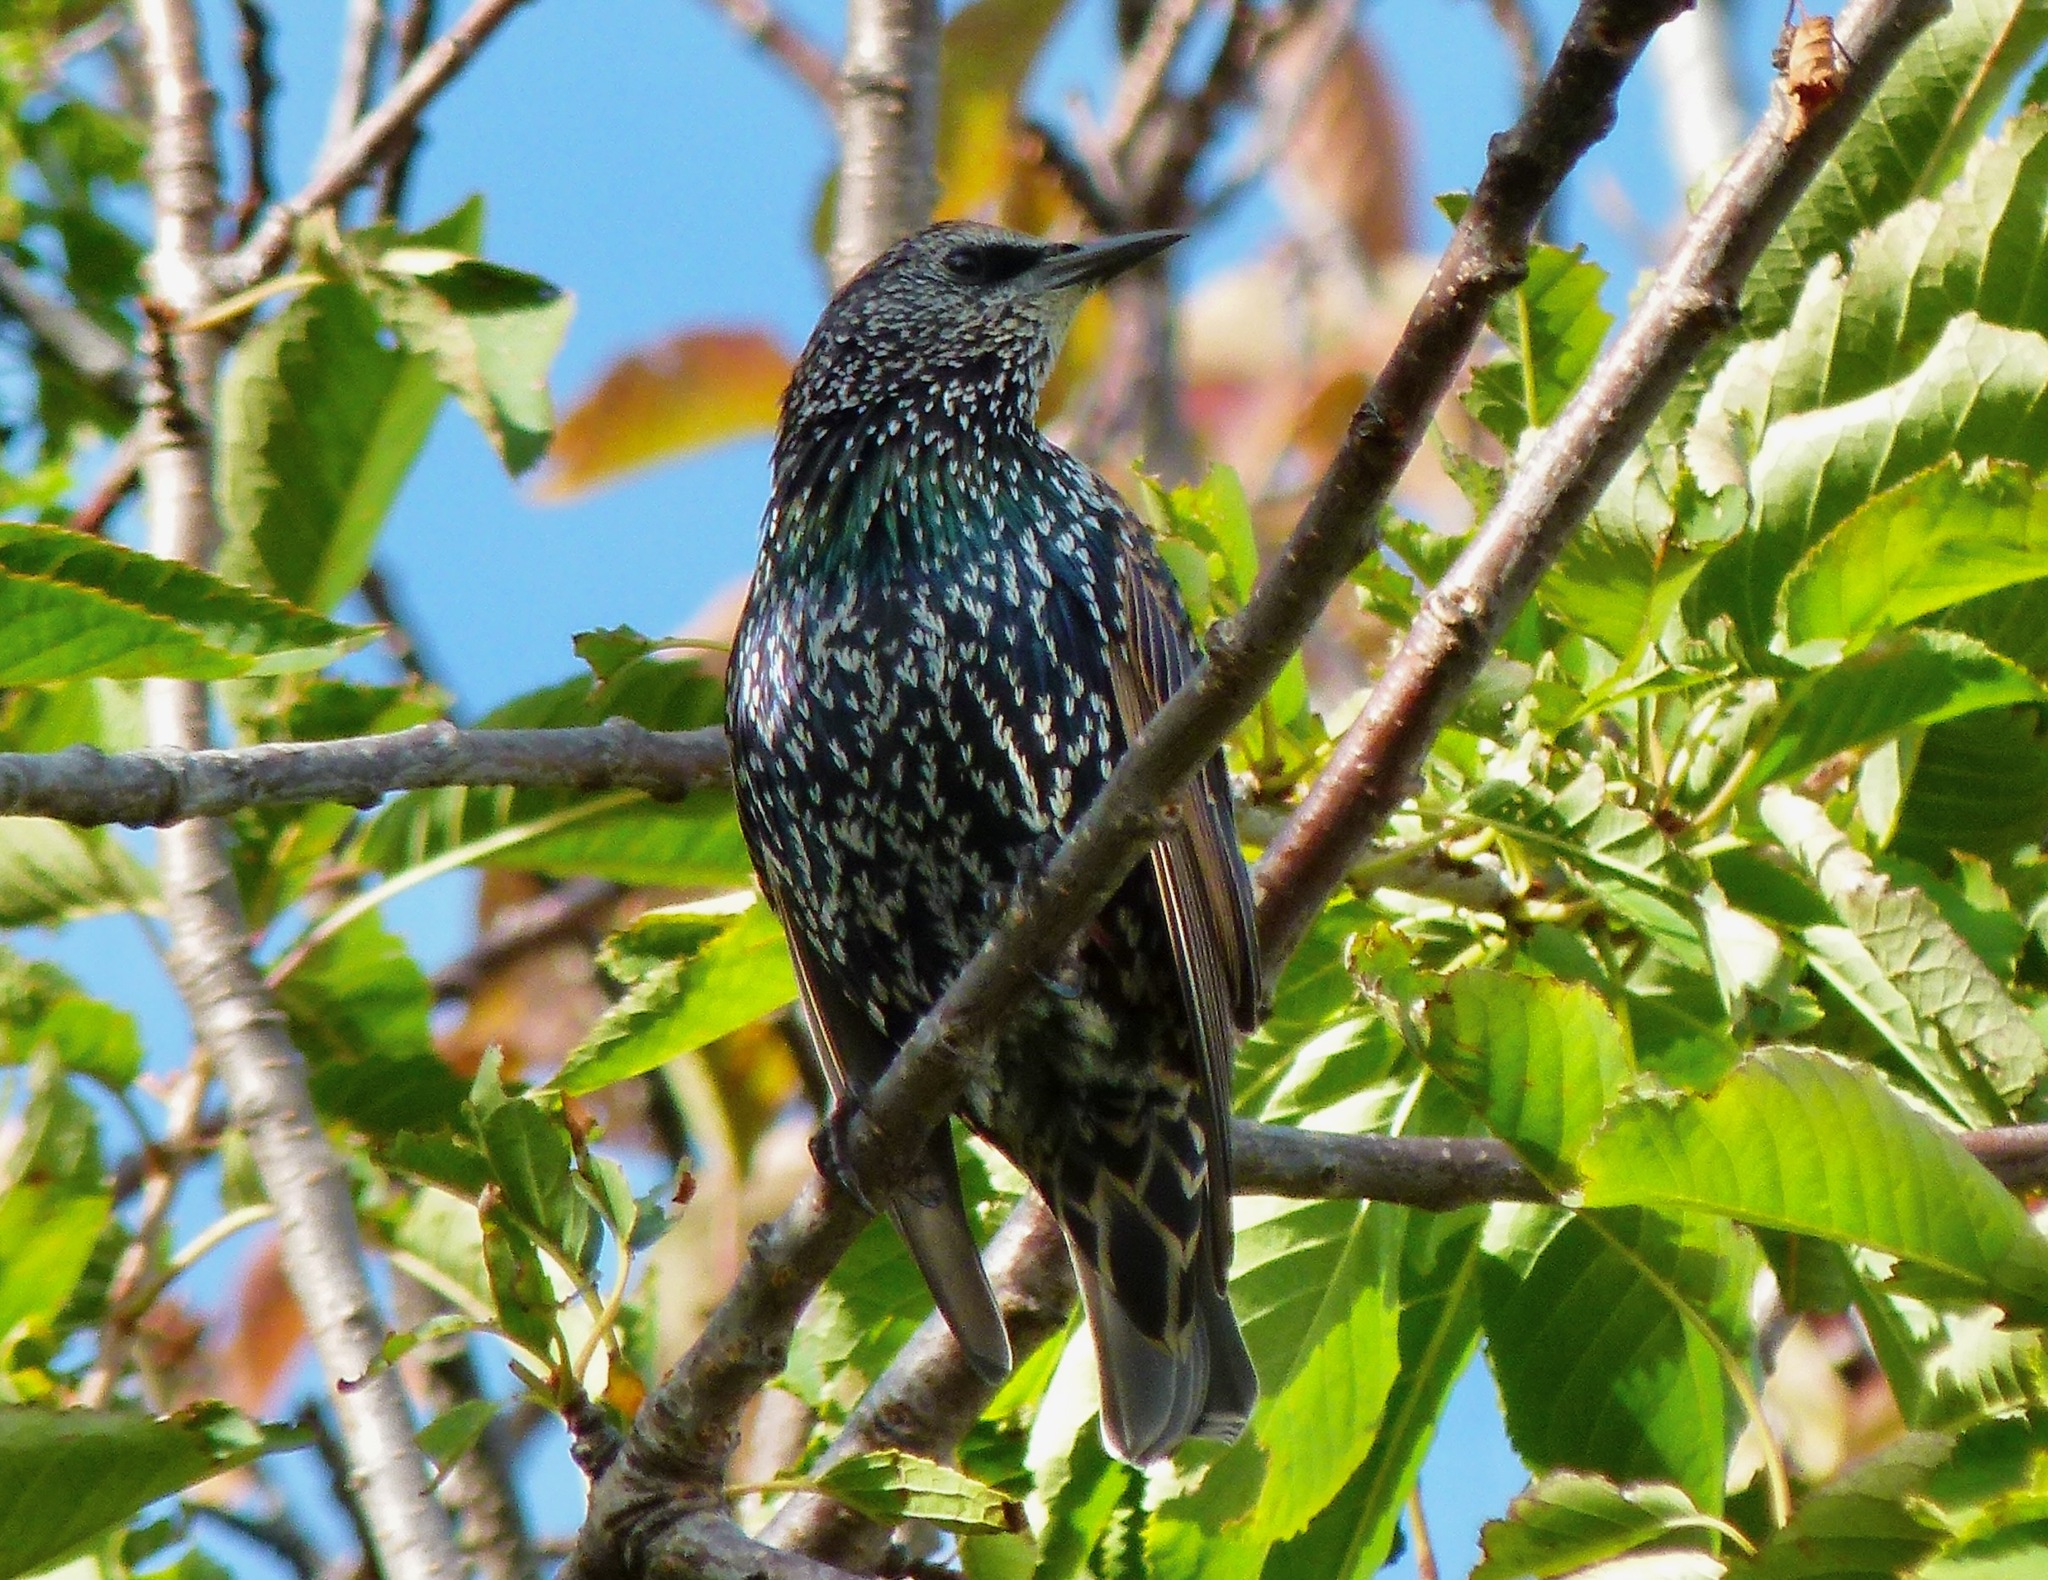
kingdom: Animalia
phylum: Chordata
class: Aves
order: Passeriformes
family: Sturnidae
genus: Sturnus
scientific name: Sturnus vulgaris
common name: Common starling
